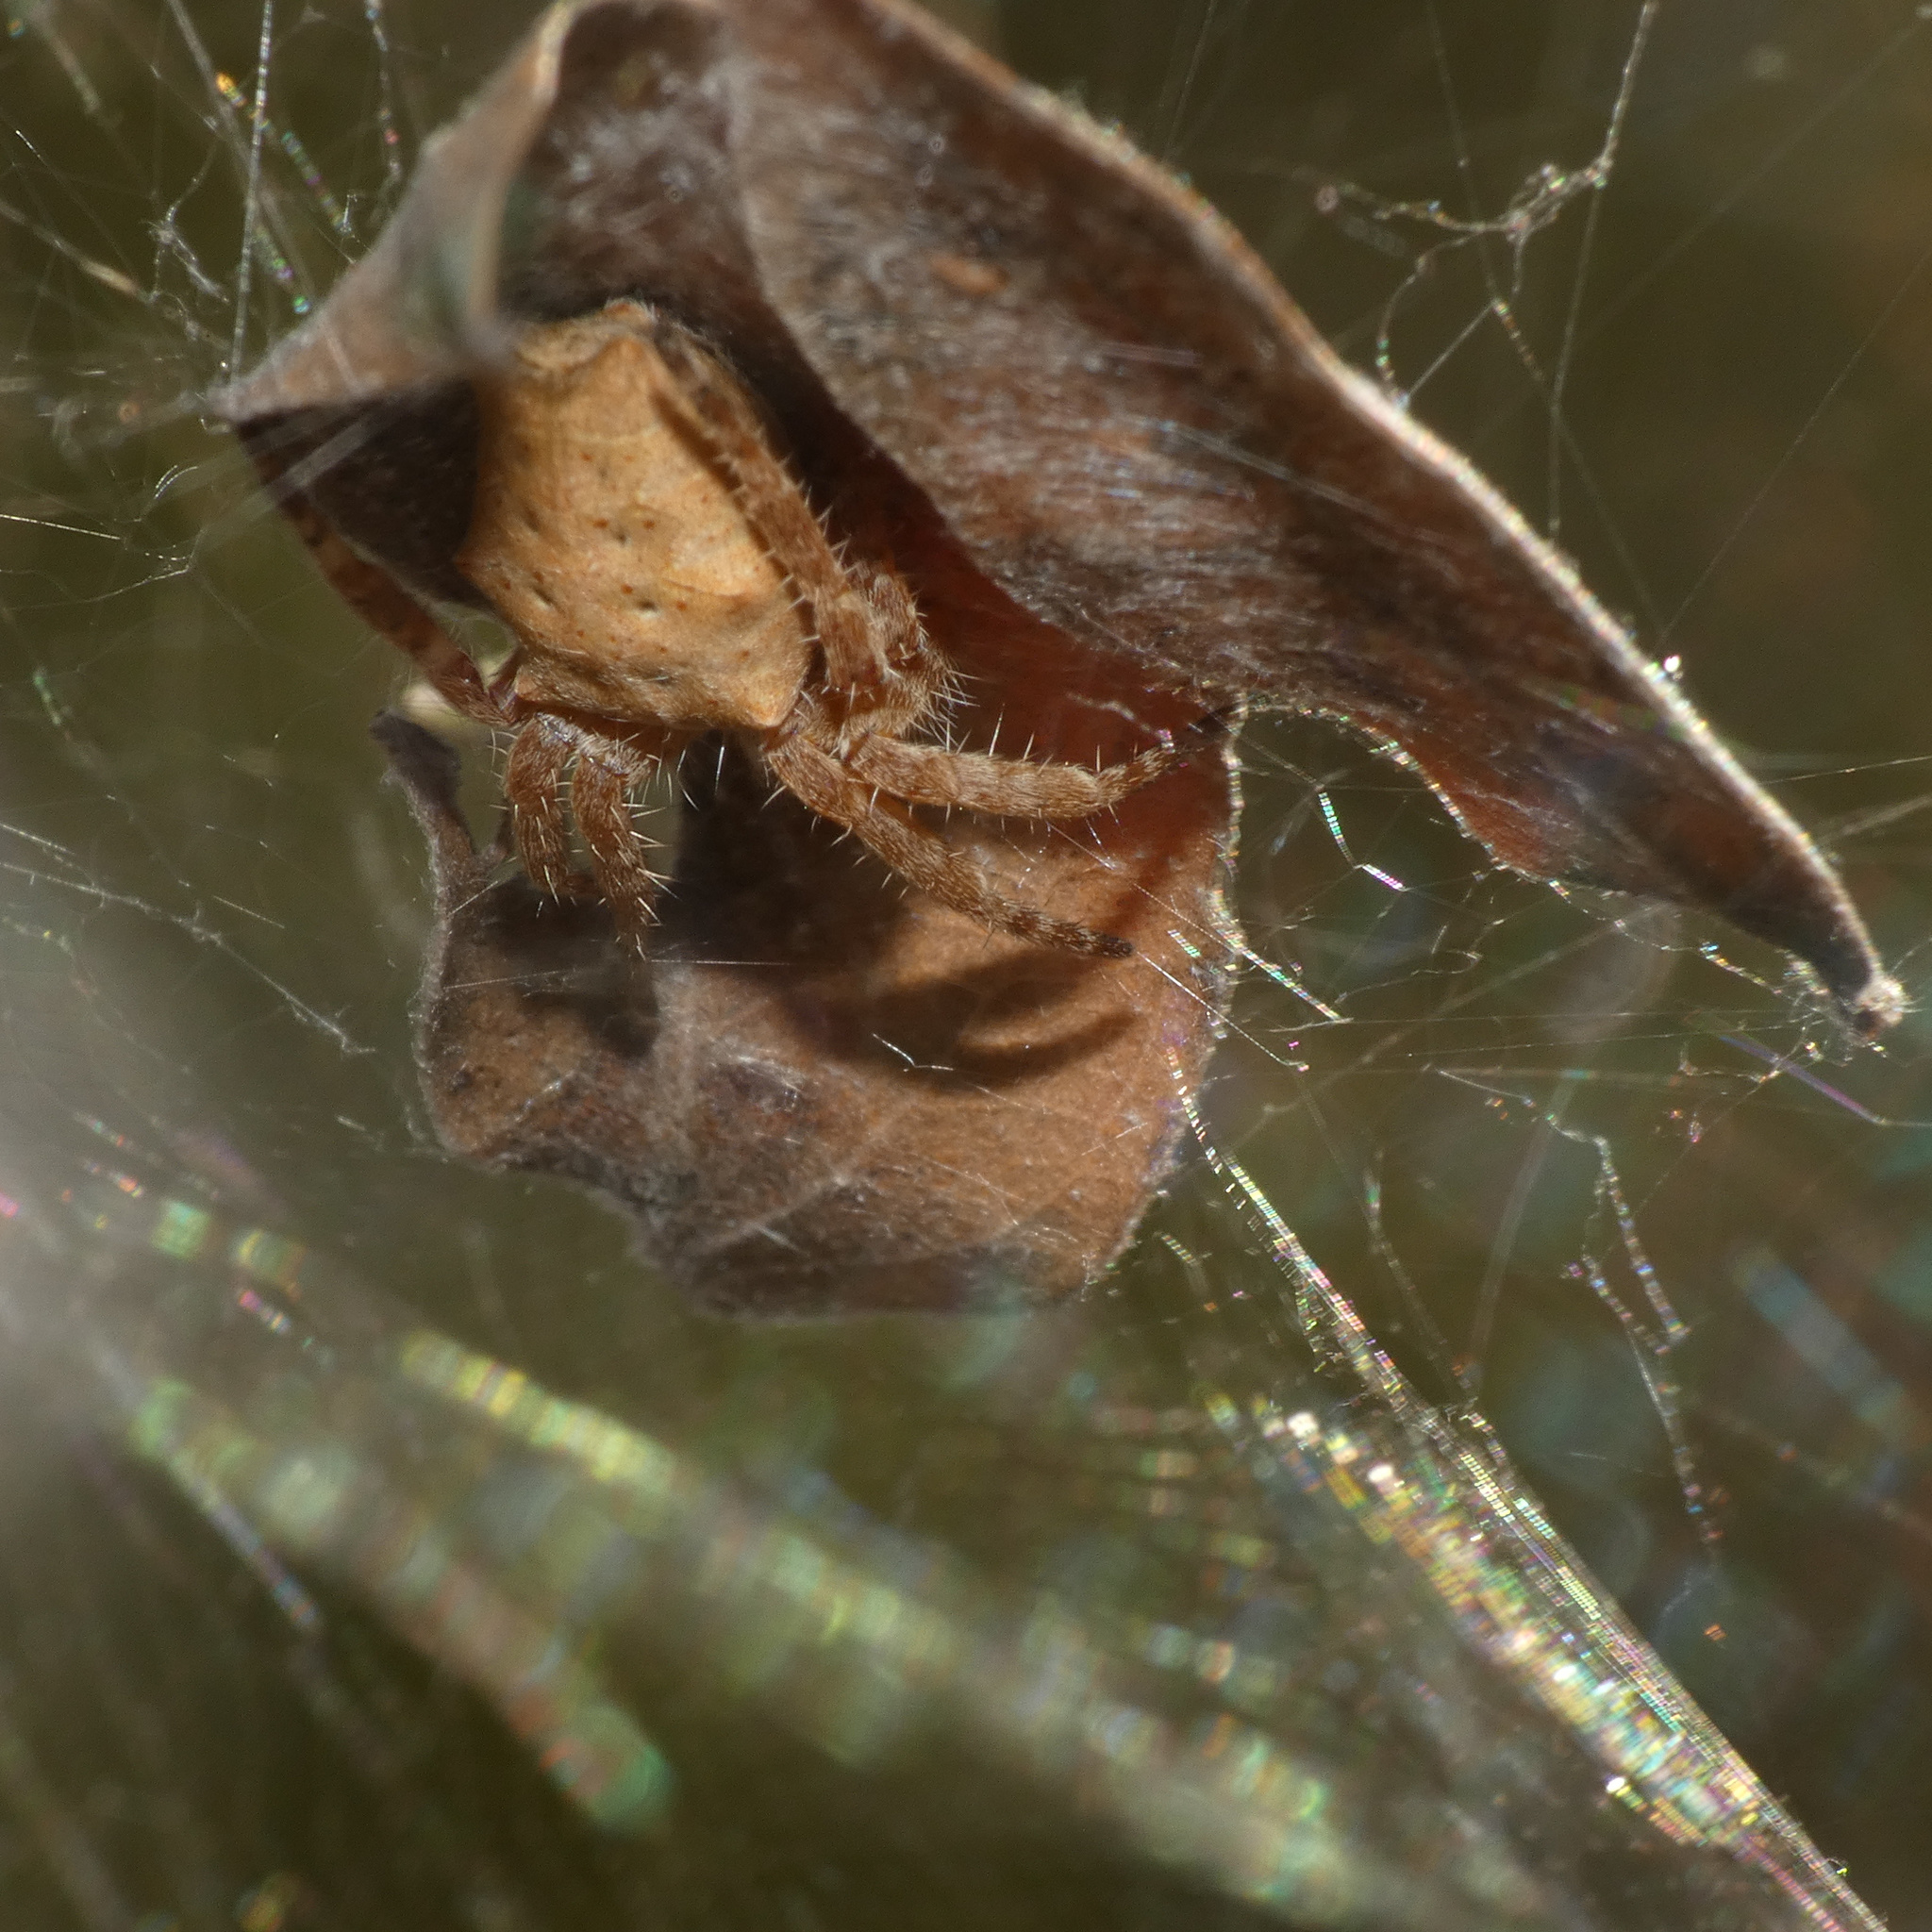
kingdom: Animalia
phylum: Arthropoda
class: Arachnida
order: Araneae
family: Araneidae
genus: Cyrtophora
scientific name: Cyrtophora citricola
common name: Orb weavers
